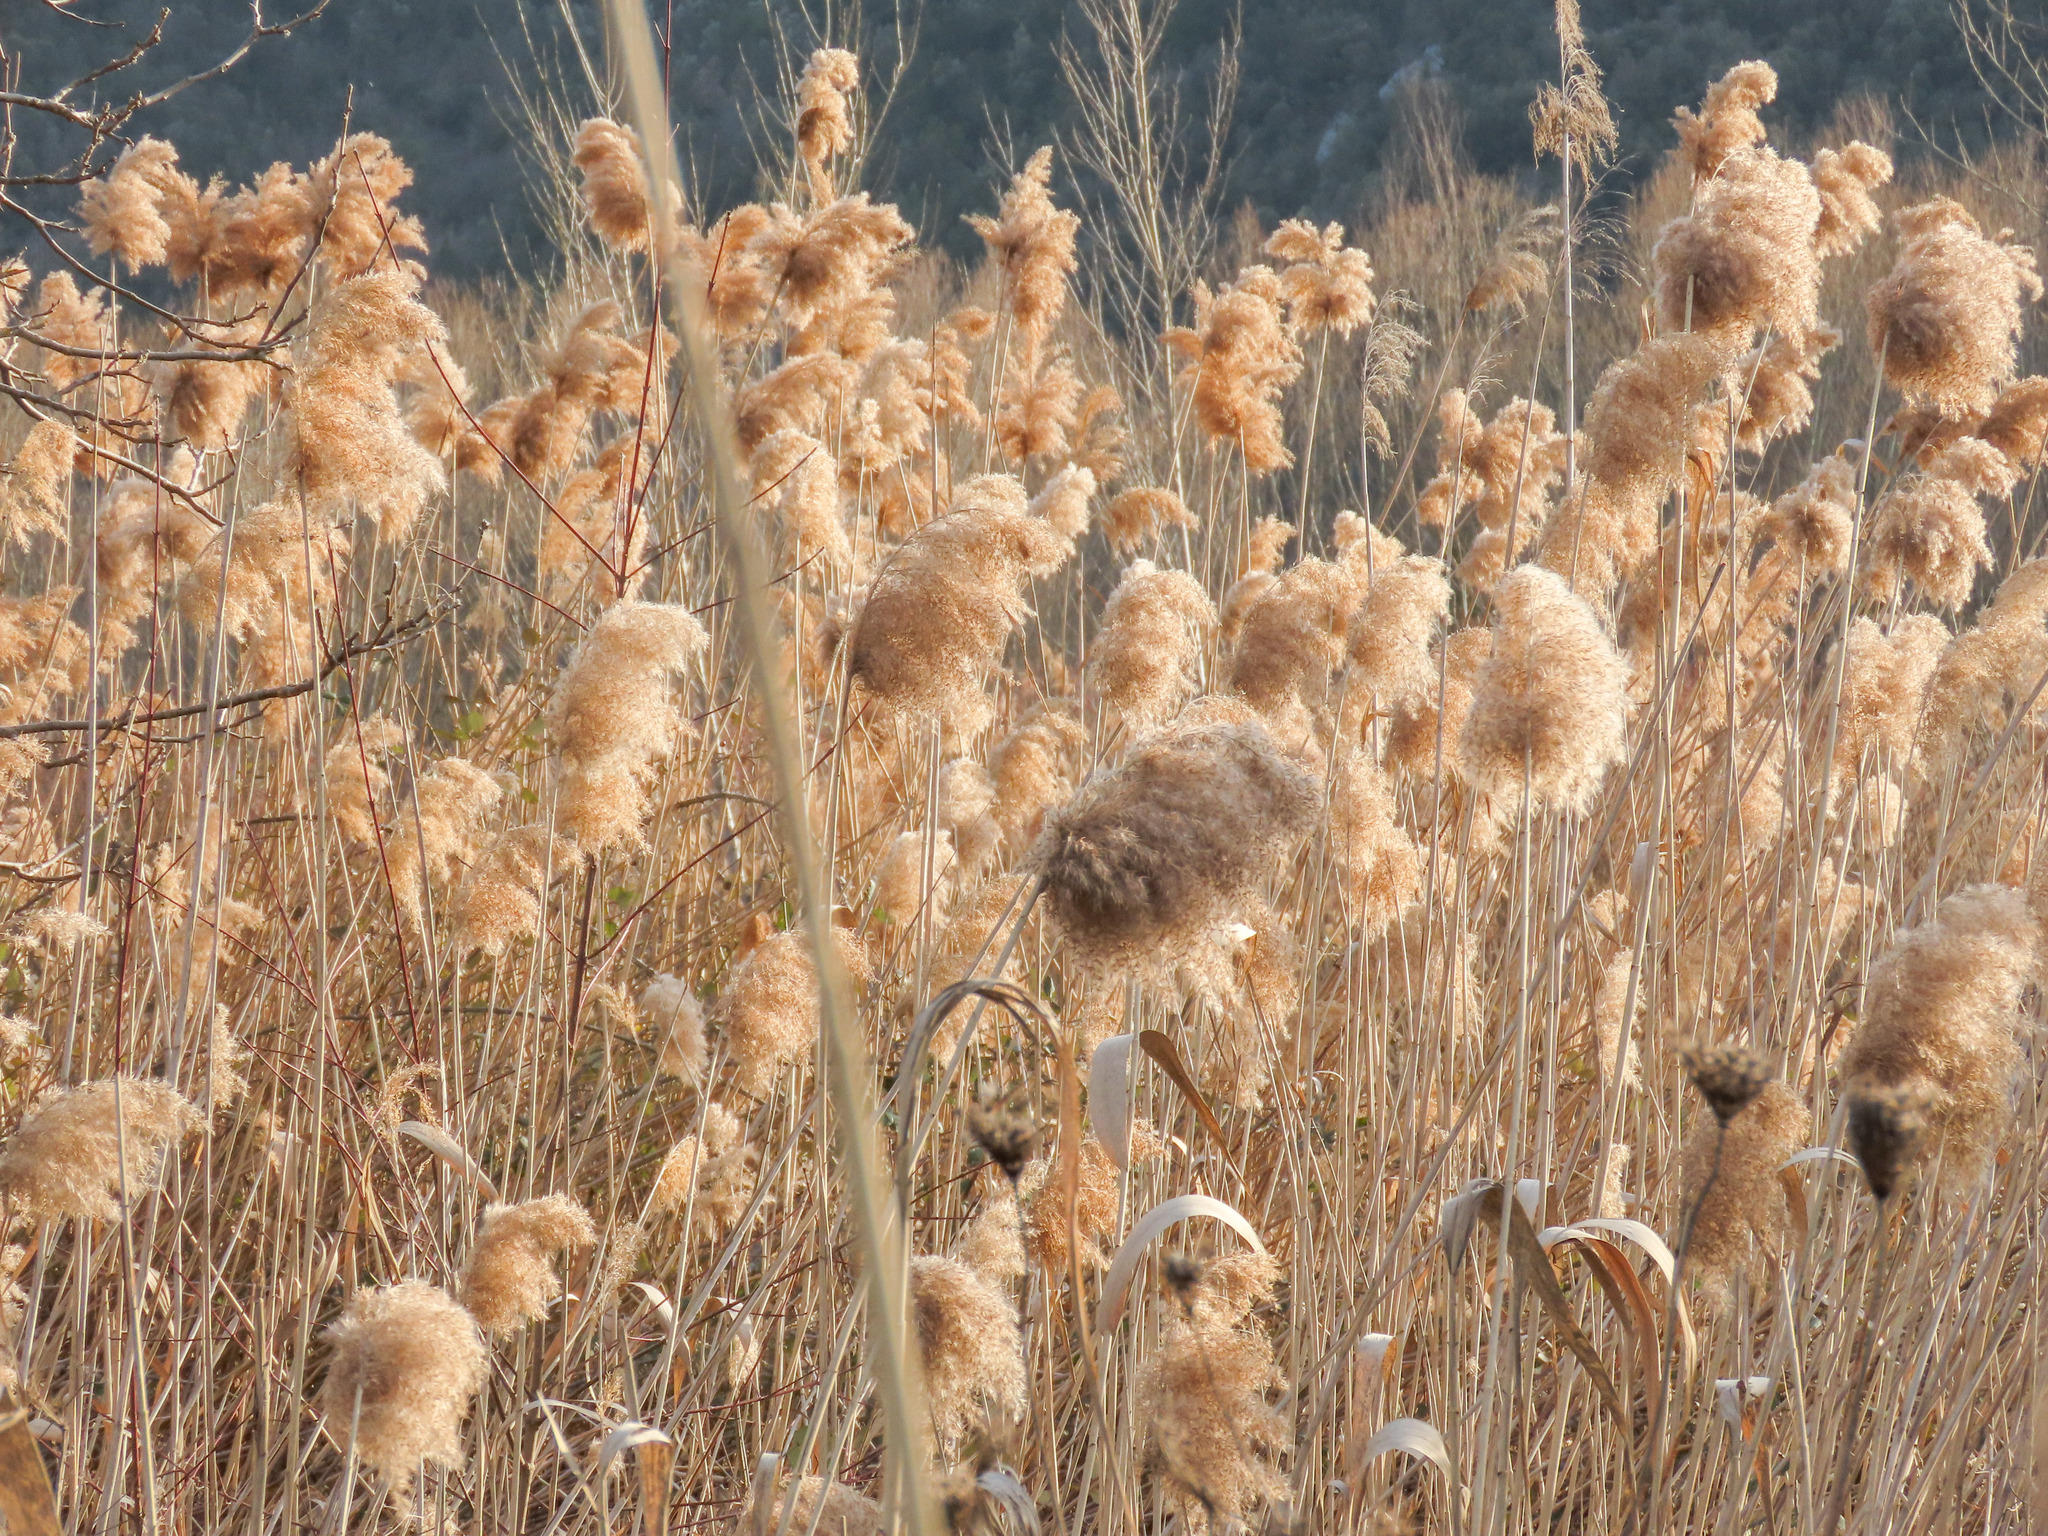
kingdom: Plantae
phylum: Tracheophyta
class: Liliopsida
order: Poales
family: Poaceae
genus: Phragmites
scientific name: Phragmites australis
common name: Common reed
